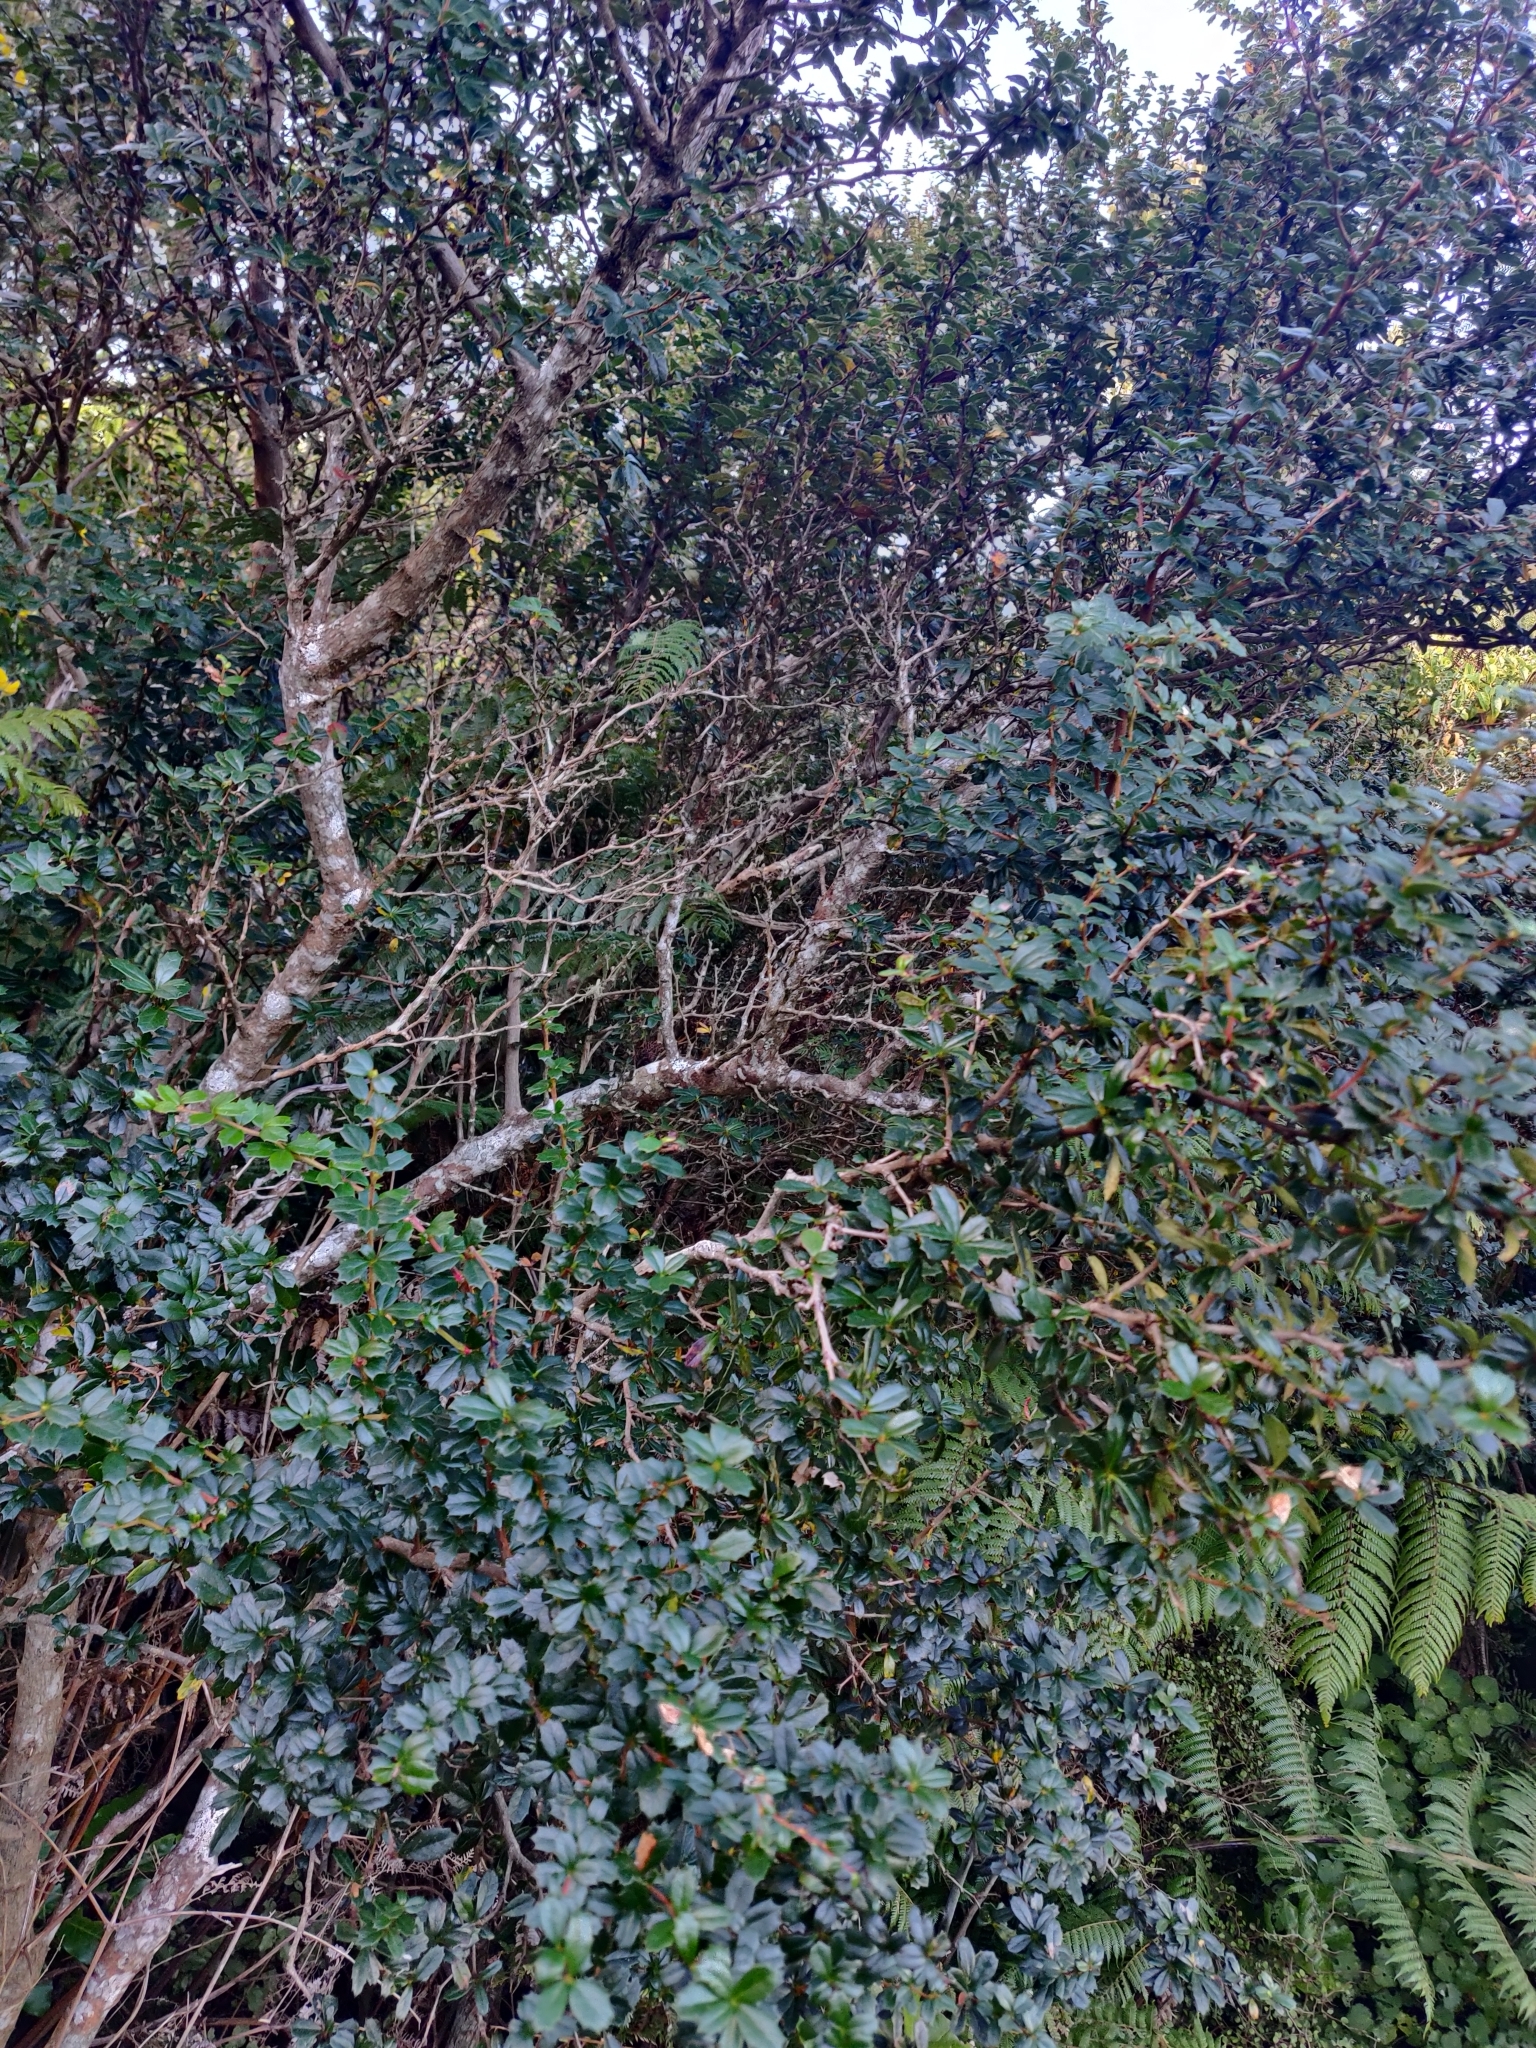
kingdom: Plantae
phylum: Tracheophyta
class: Magnoliopsida
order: Ranunculales
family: Berberidaceae
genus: Berberis
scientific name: Berberis darwinii
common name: Darwin's barberry
